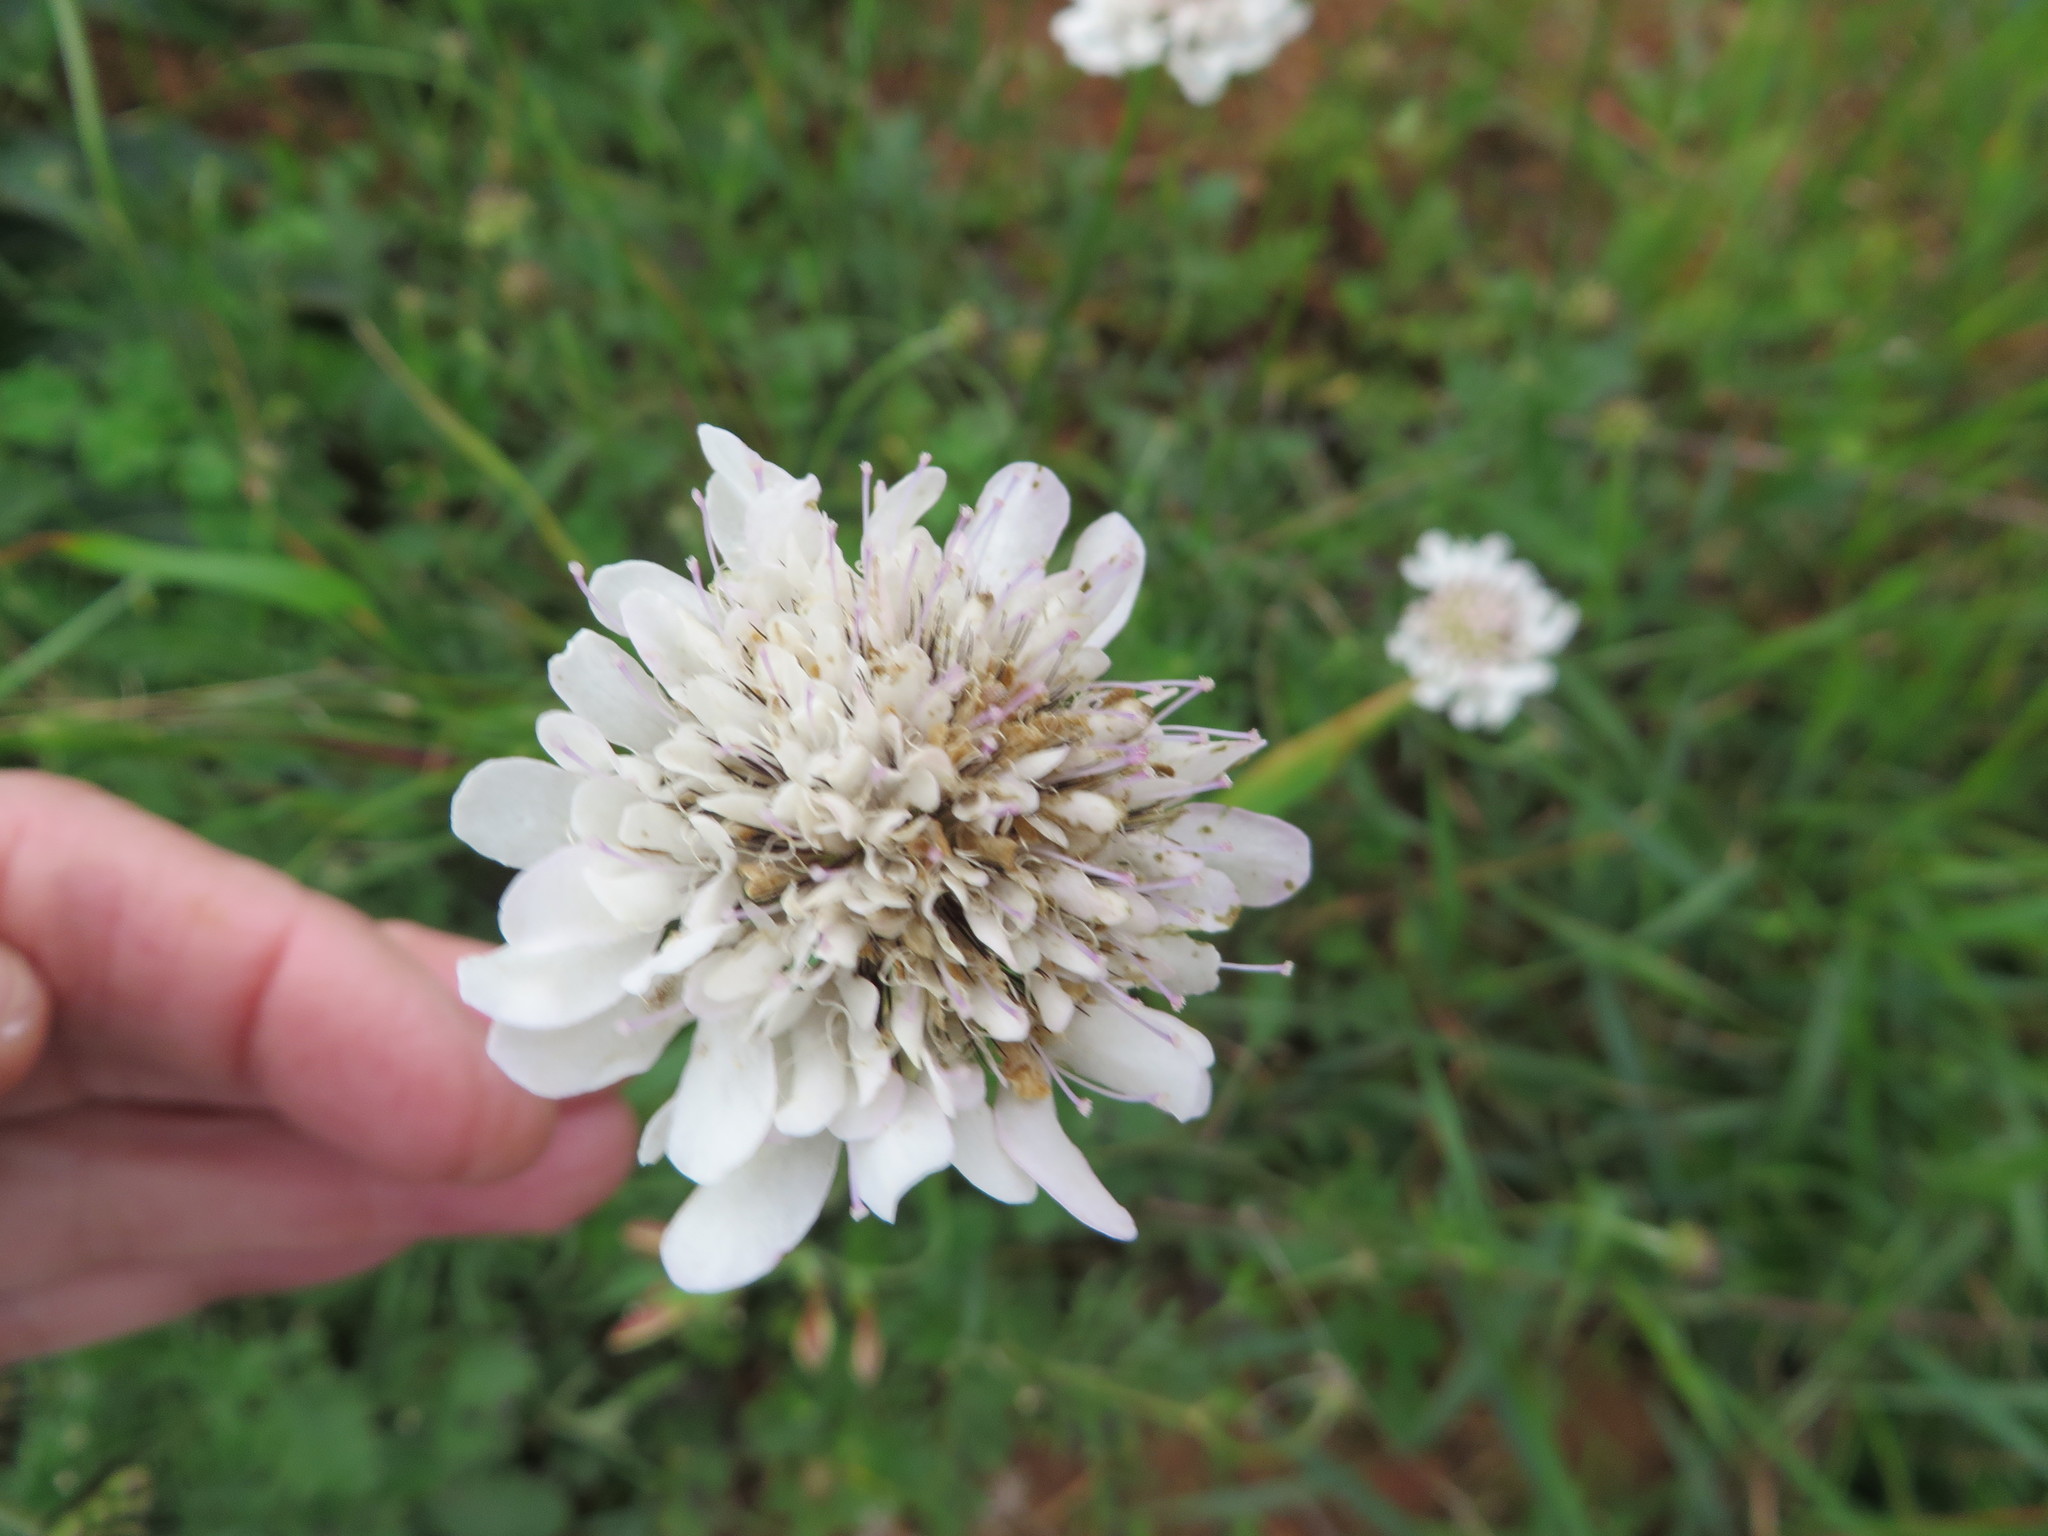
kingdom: Plantae
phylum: Tracheophyta
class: Magnoliopsida
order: Dipsacales
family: Caprifoliaceae
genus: Scabiosa
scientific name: Scabiosa columbaria
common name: Small scabious
